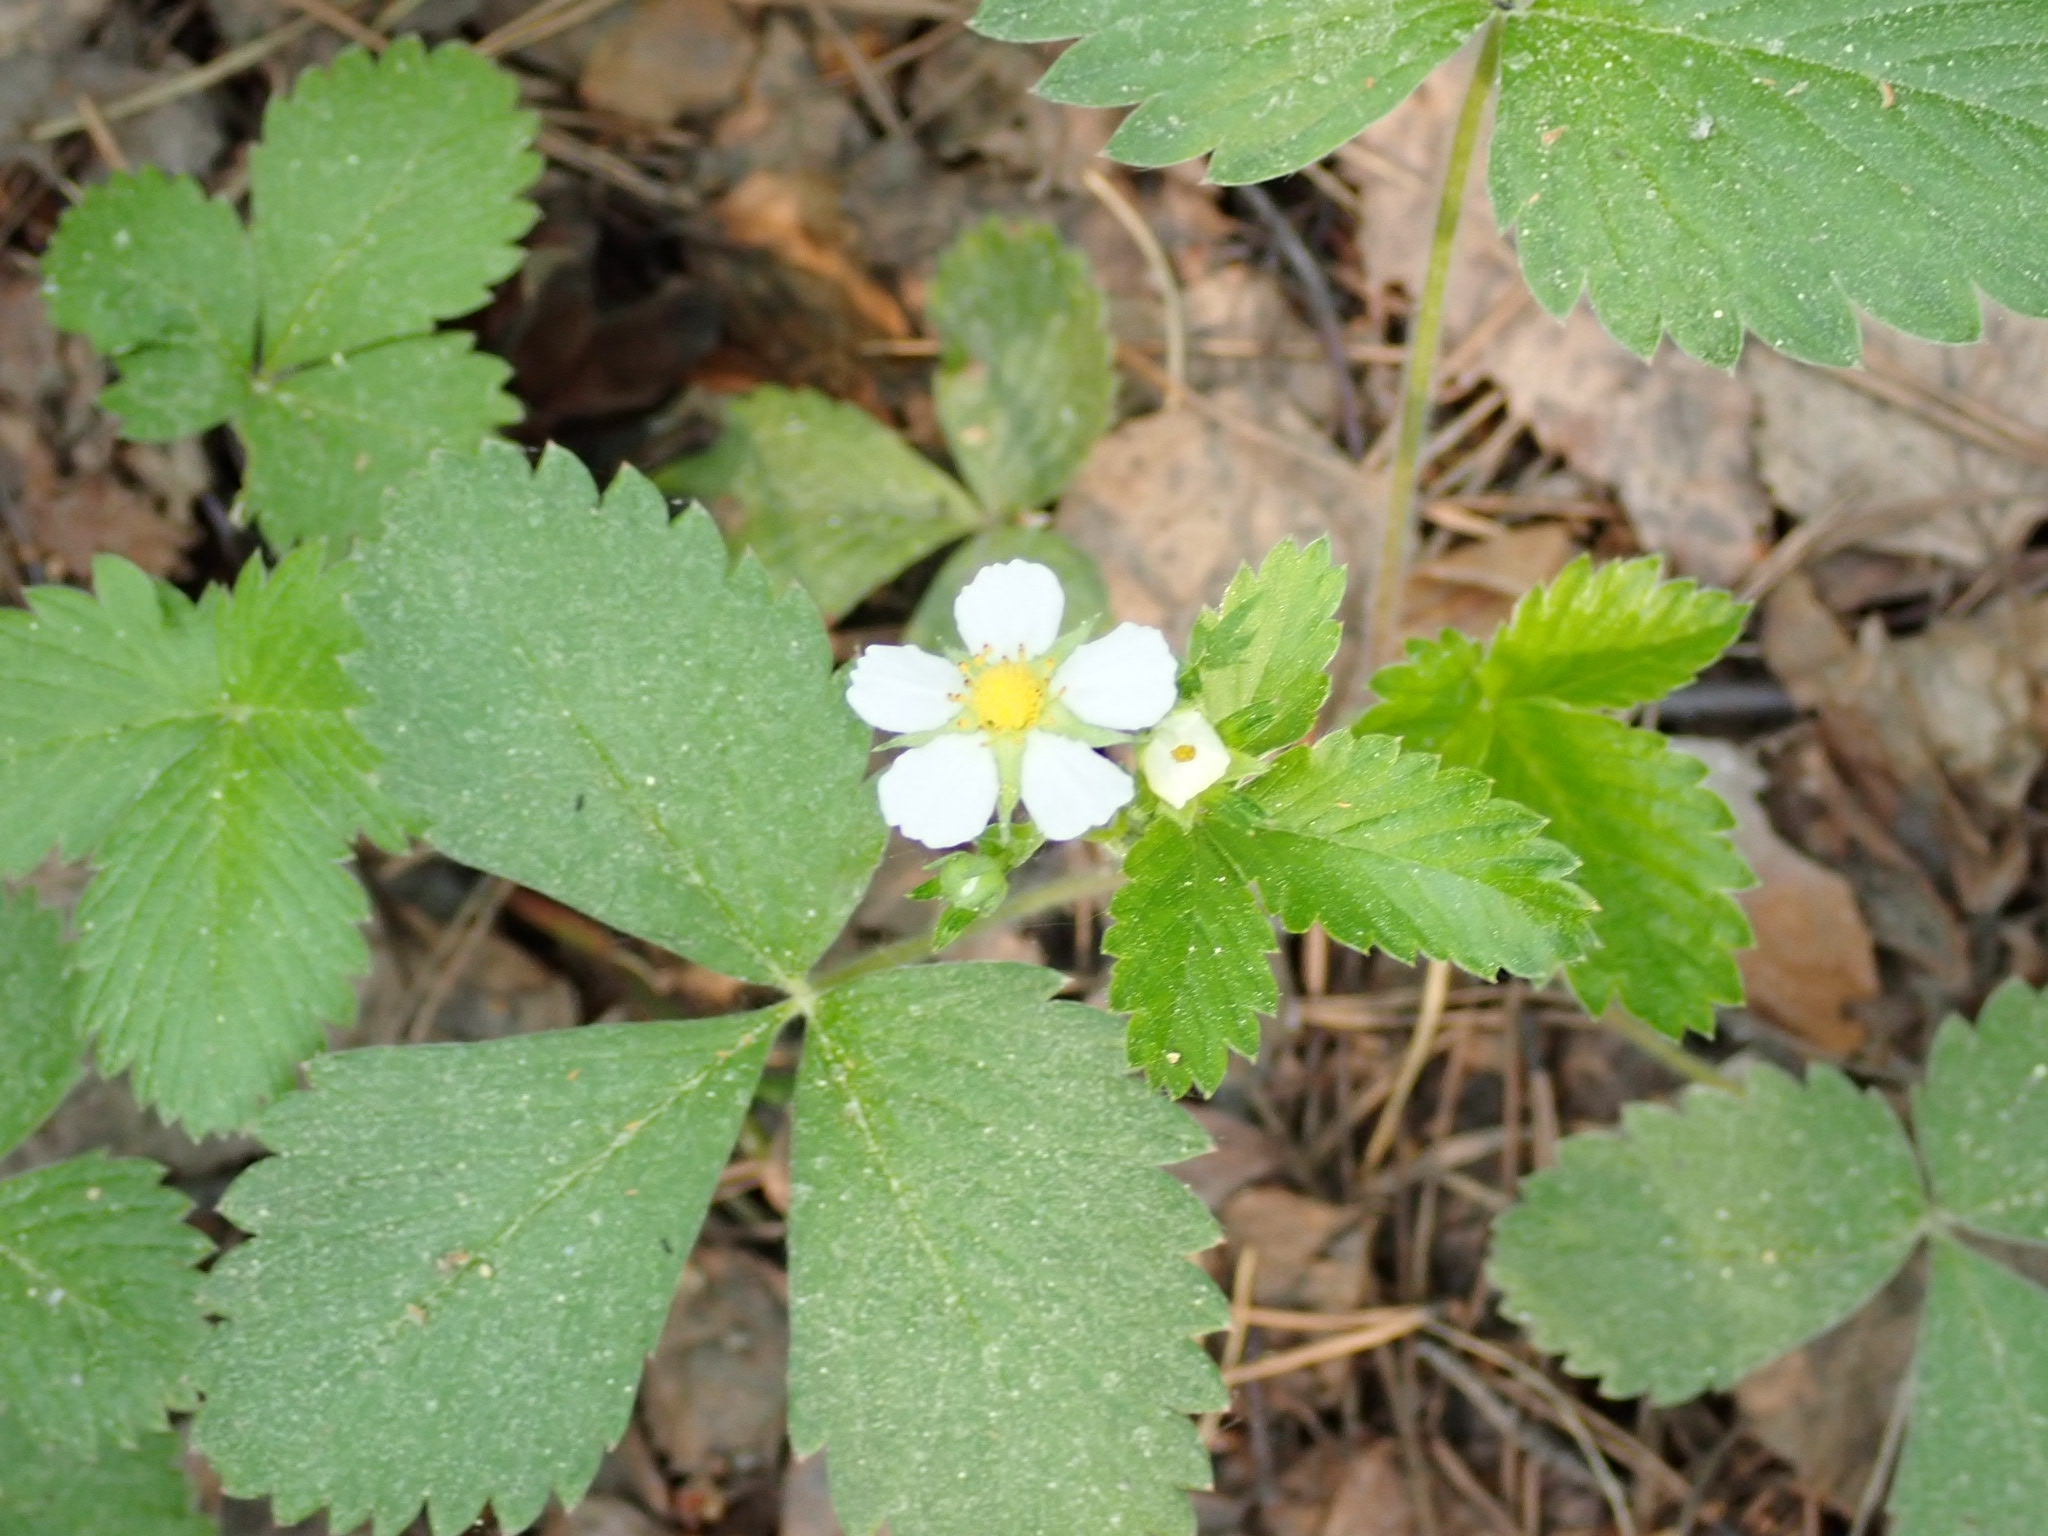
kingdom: Plantae
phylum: Tracheophyta
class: Magnoliopsida
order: Rosales
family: Rosaceae
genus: Fragaria
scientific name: Fragaria vesca
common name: Wild strawberry
